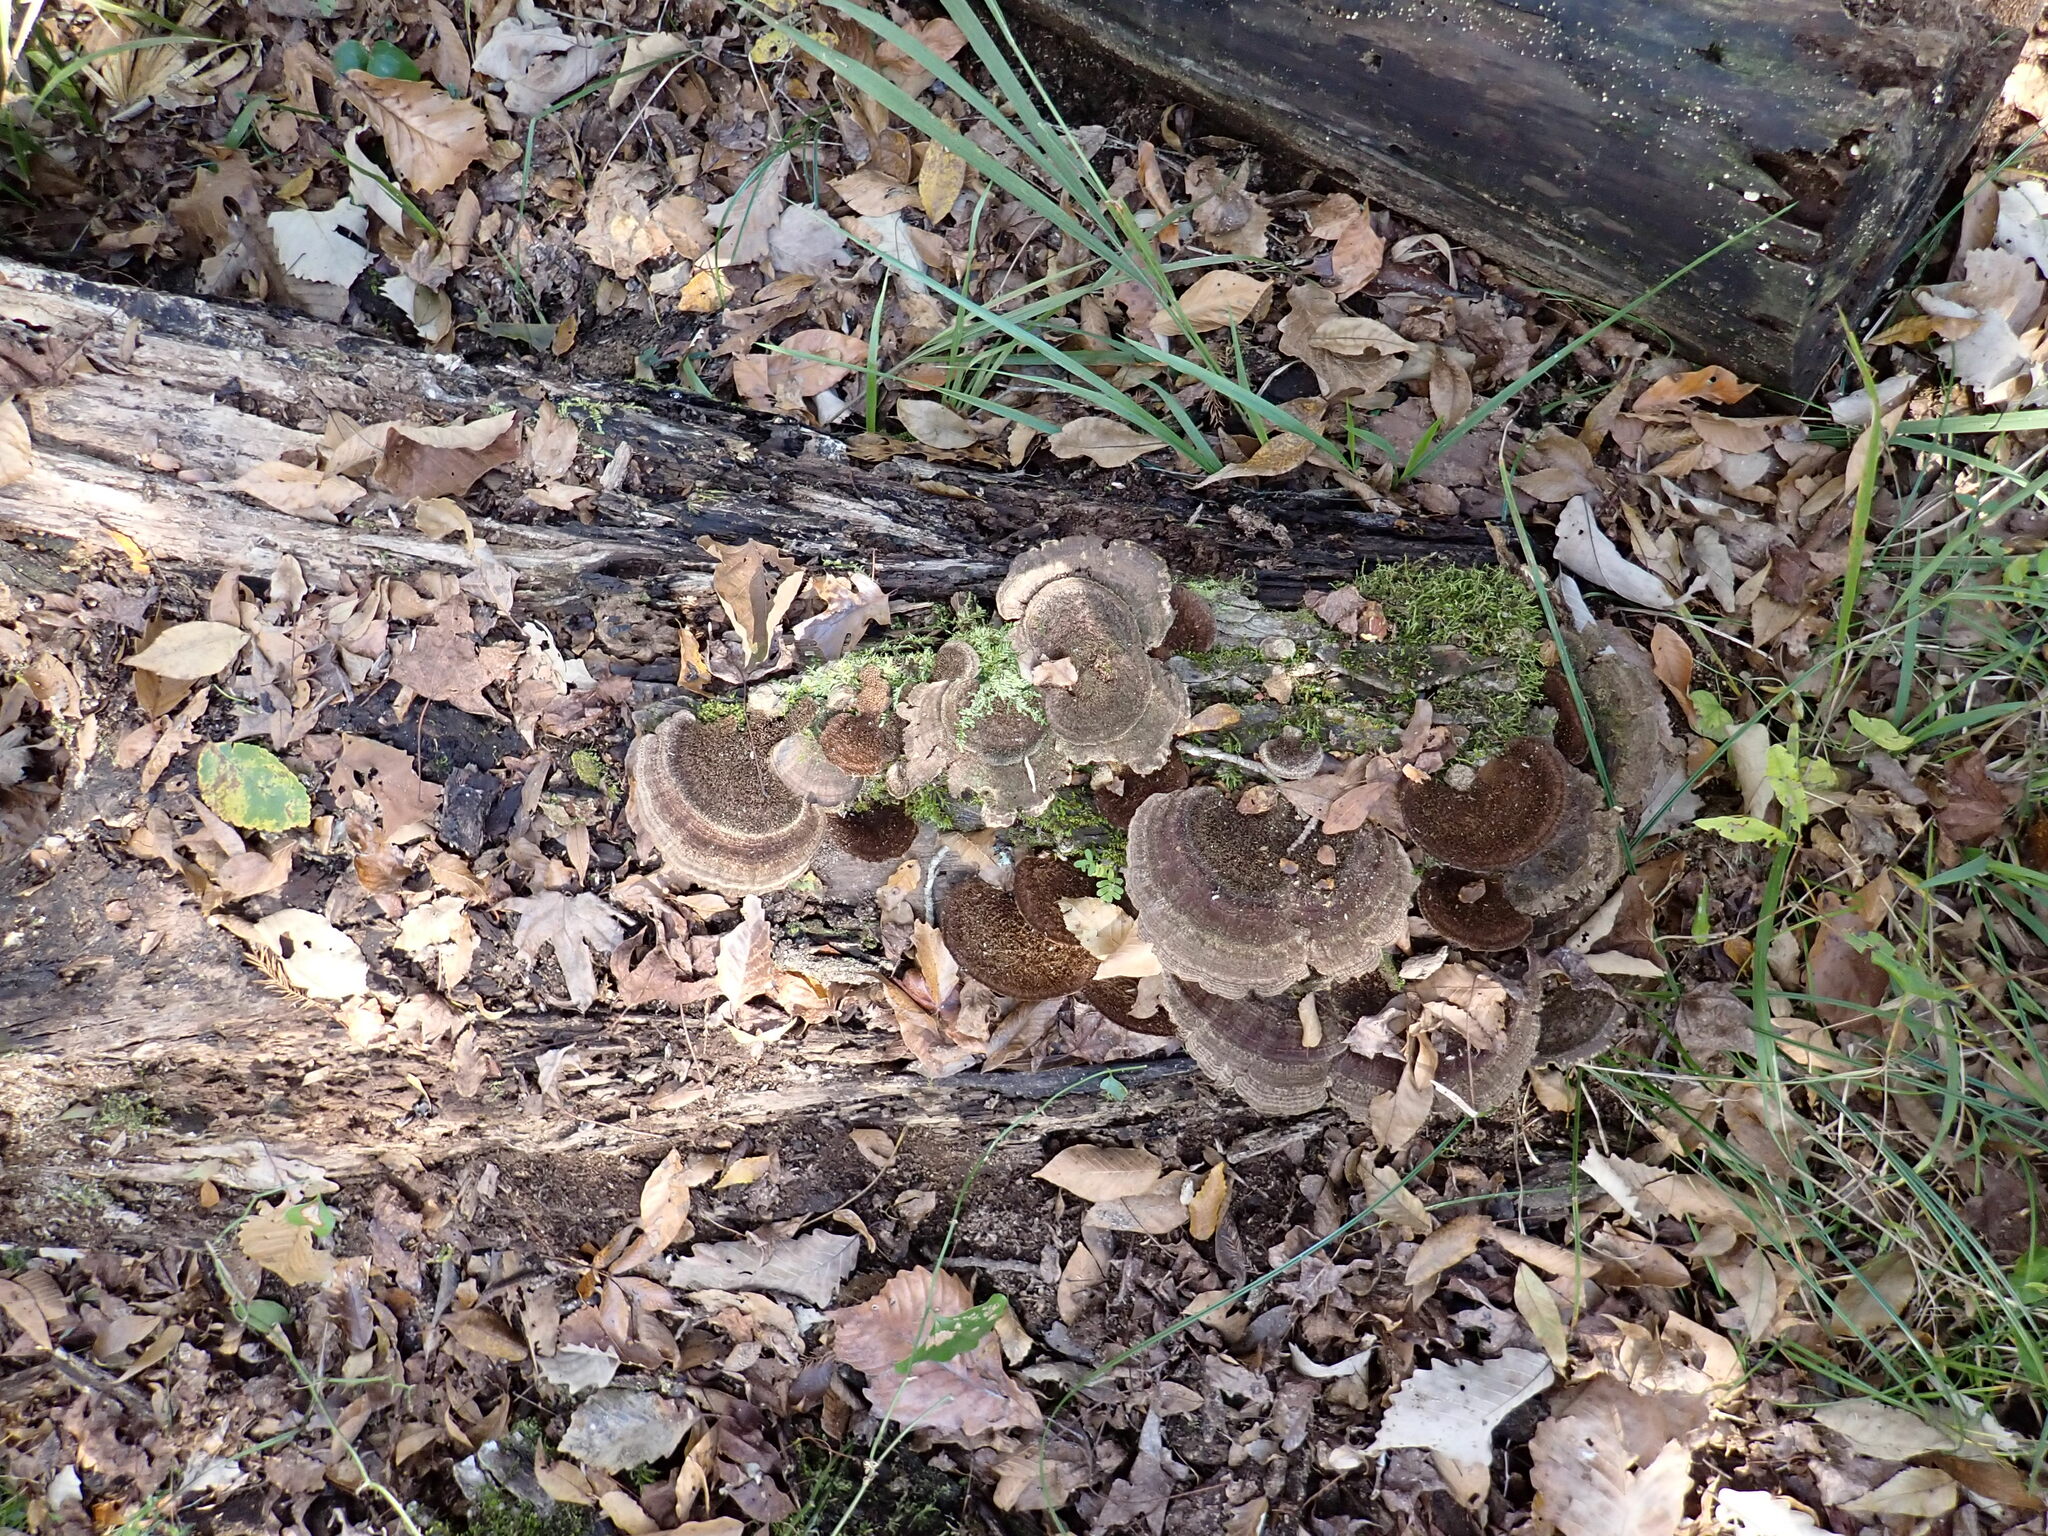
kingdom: Fungi
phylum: Basidiomycota
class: Agaricomycetes
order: Polyporales
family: Cerrenaceae
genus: Cerrena
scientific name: Cerrena hydnoides
